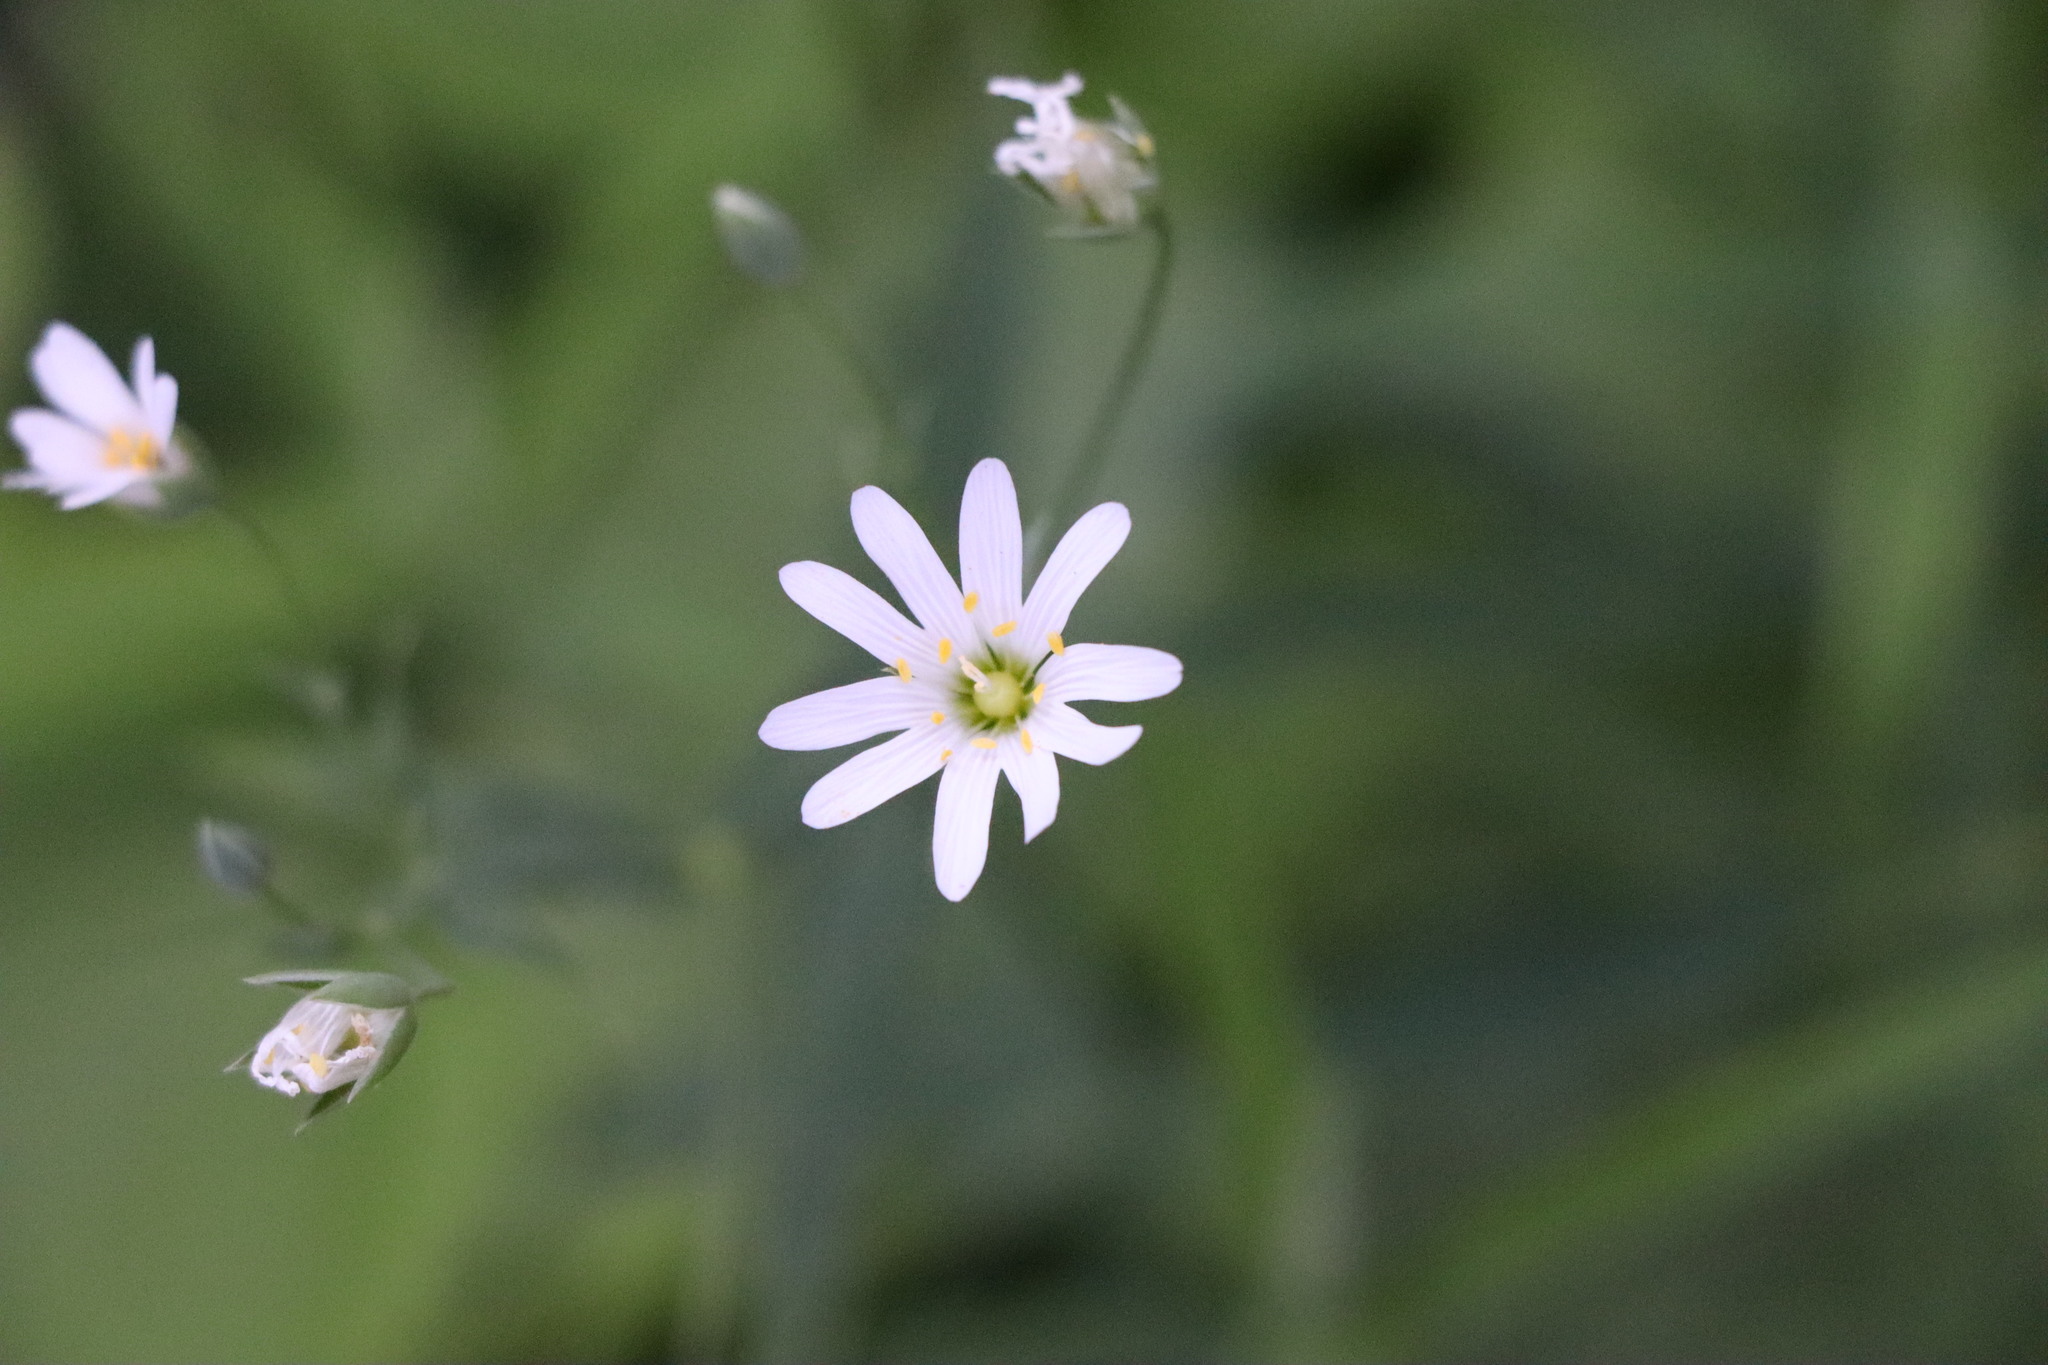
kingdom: Plantae
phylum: Tracheophyta
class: Magnoliopsida
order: Caryophyllales
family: Caryophyllaceae
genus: Rabelera
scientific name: Rabelera holostea
